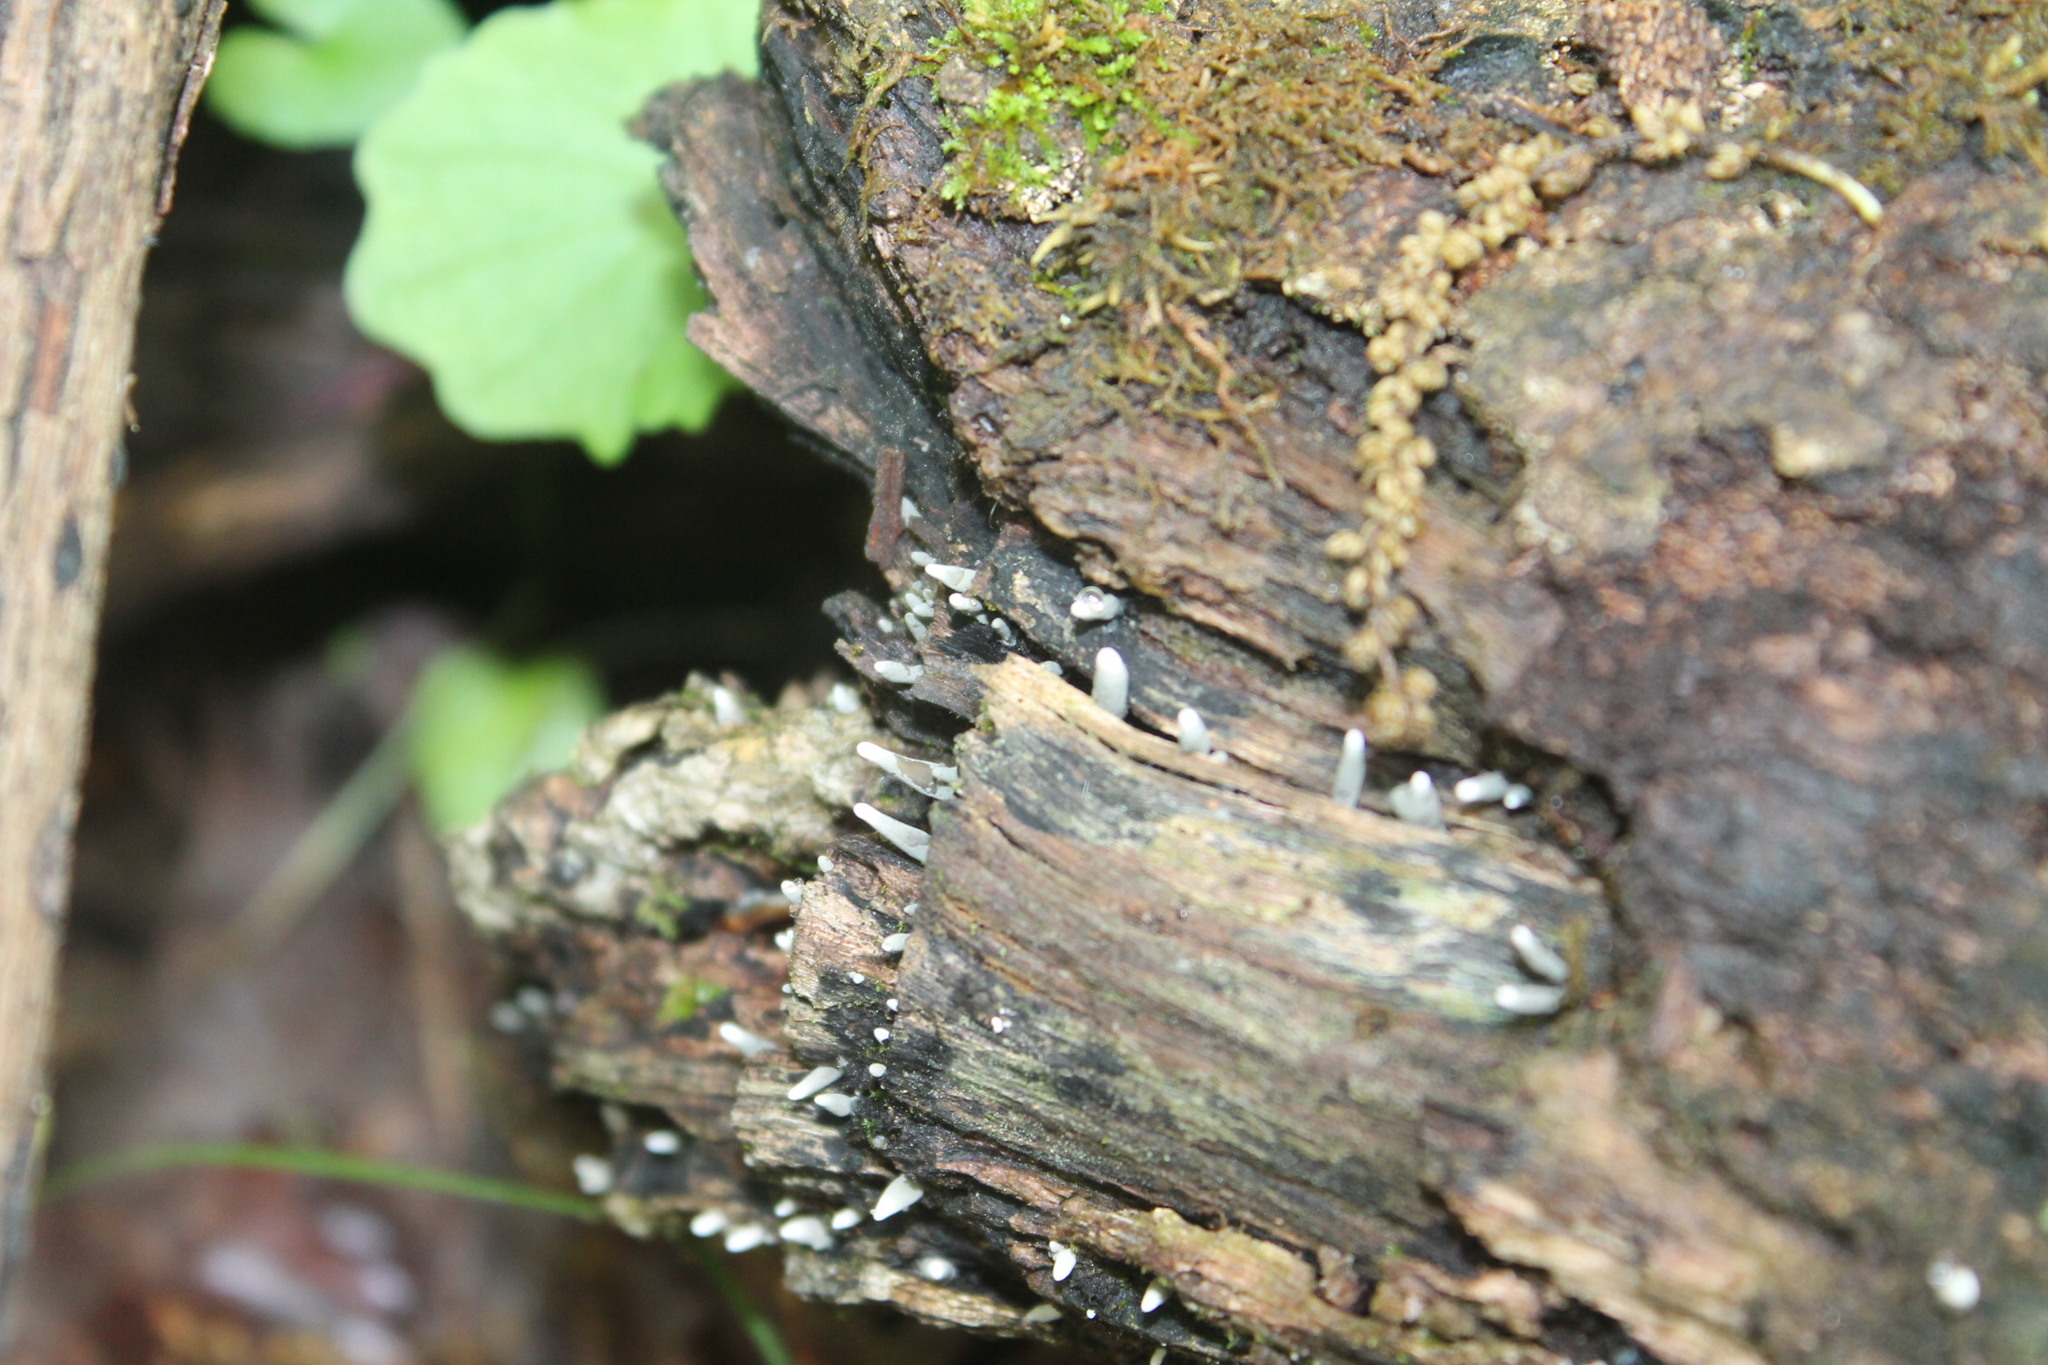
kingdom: Fungi
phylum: Ascomycota
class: Sordariomycetes
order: Xylariales
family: Xylariaceae
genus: Xylaria
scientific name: Xylaria polymorpha
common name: Dead man's fingers
